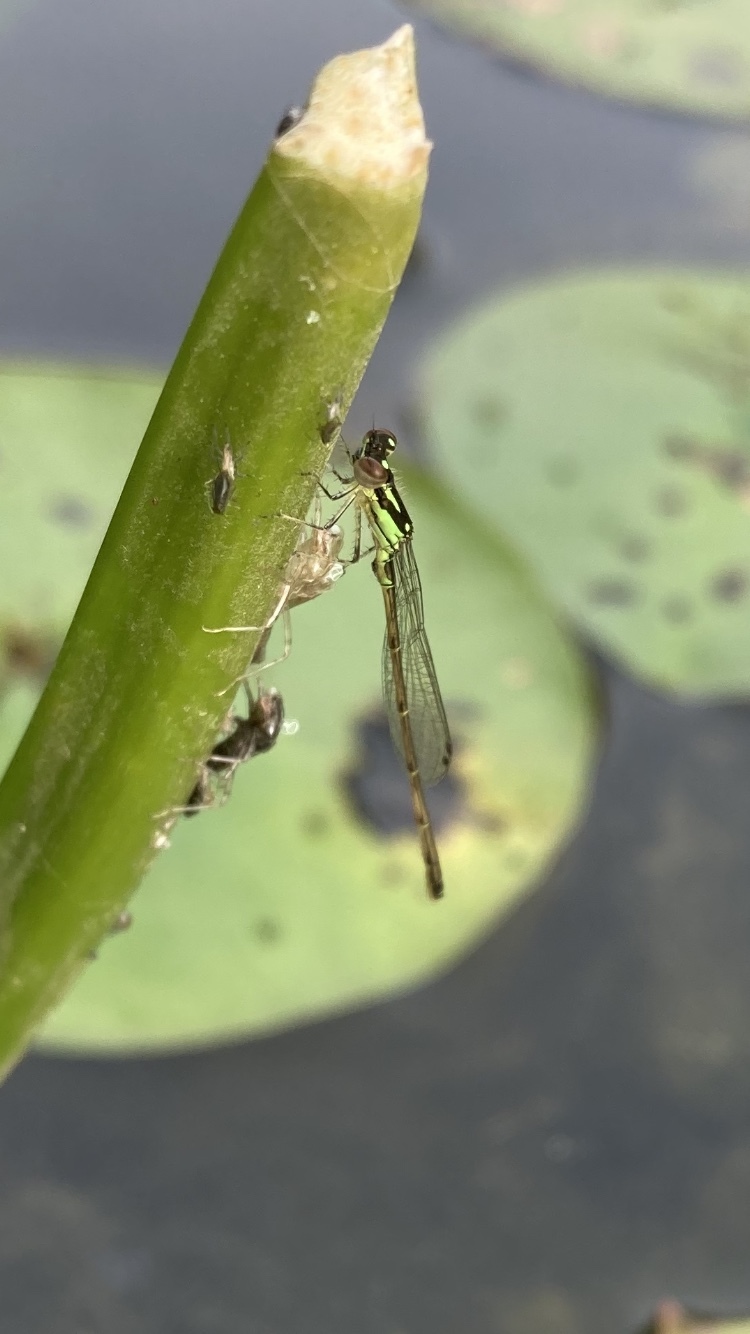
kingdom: Animalia
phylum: Arthropoda
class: Insecta
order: Odonata
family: Coenagrionidae
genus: Ischnura
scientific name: Ischnura posita
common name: Fragile forktail
